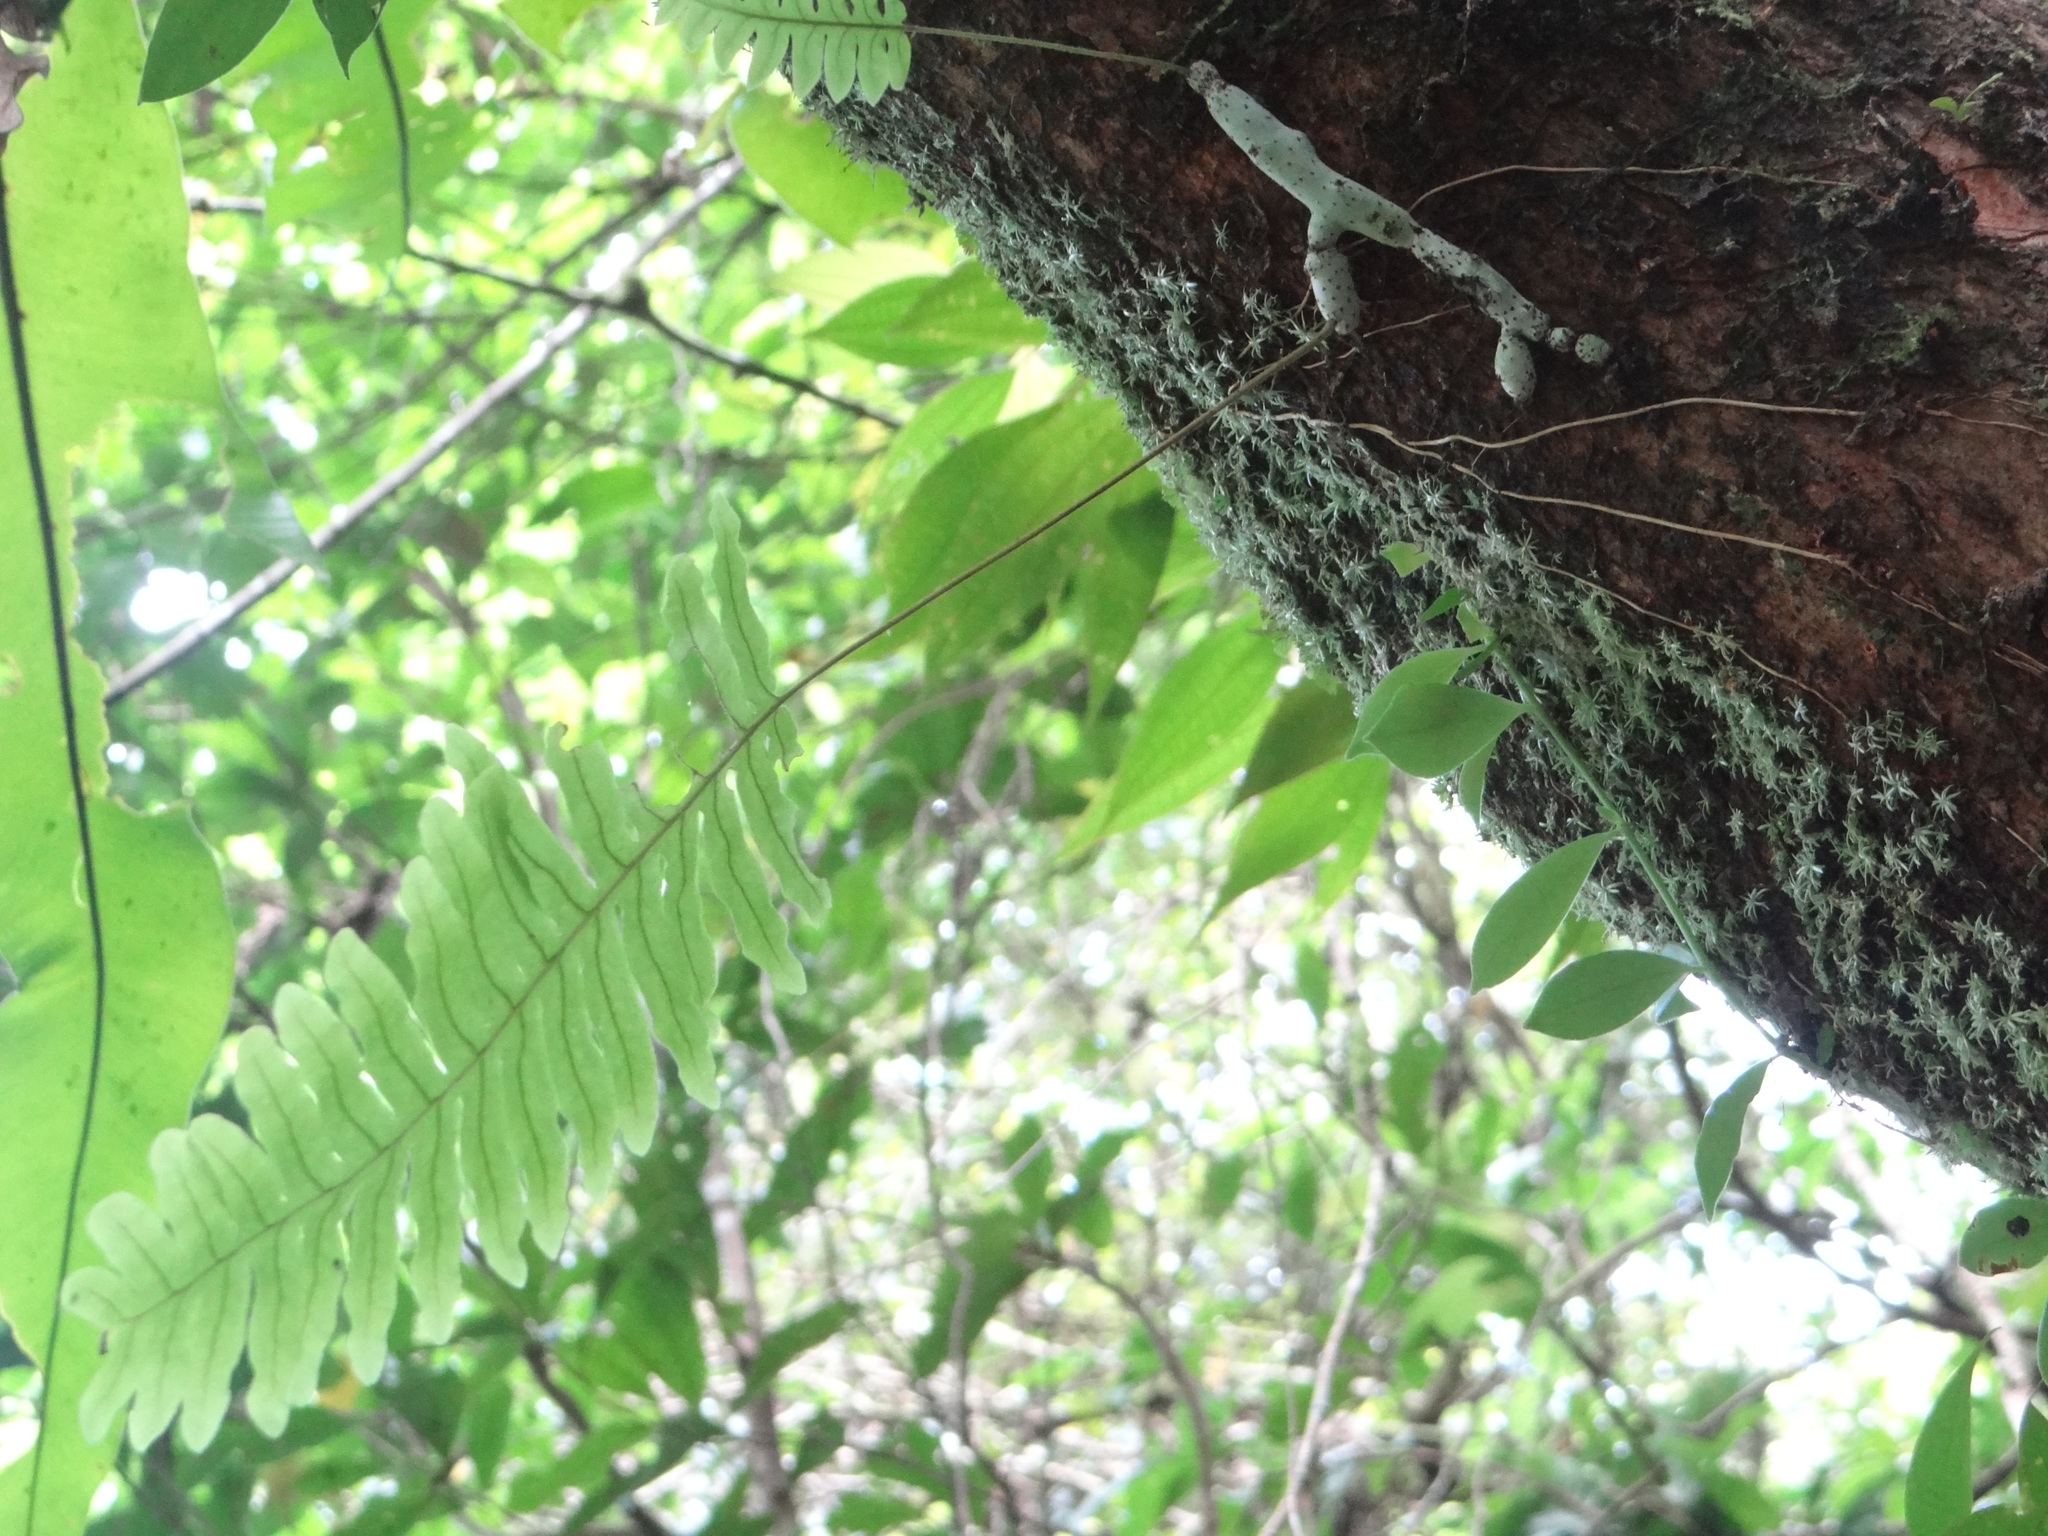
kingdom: Plantae
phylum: Tracheophyta
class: Polypodiopsida
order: Polypodiales
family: Polypodiaceae
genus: Goniophlebium
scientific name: Goniophlebium formosanum
